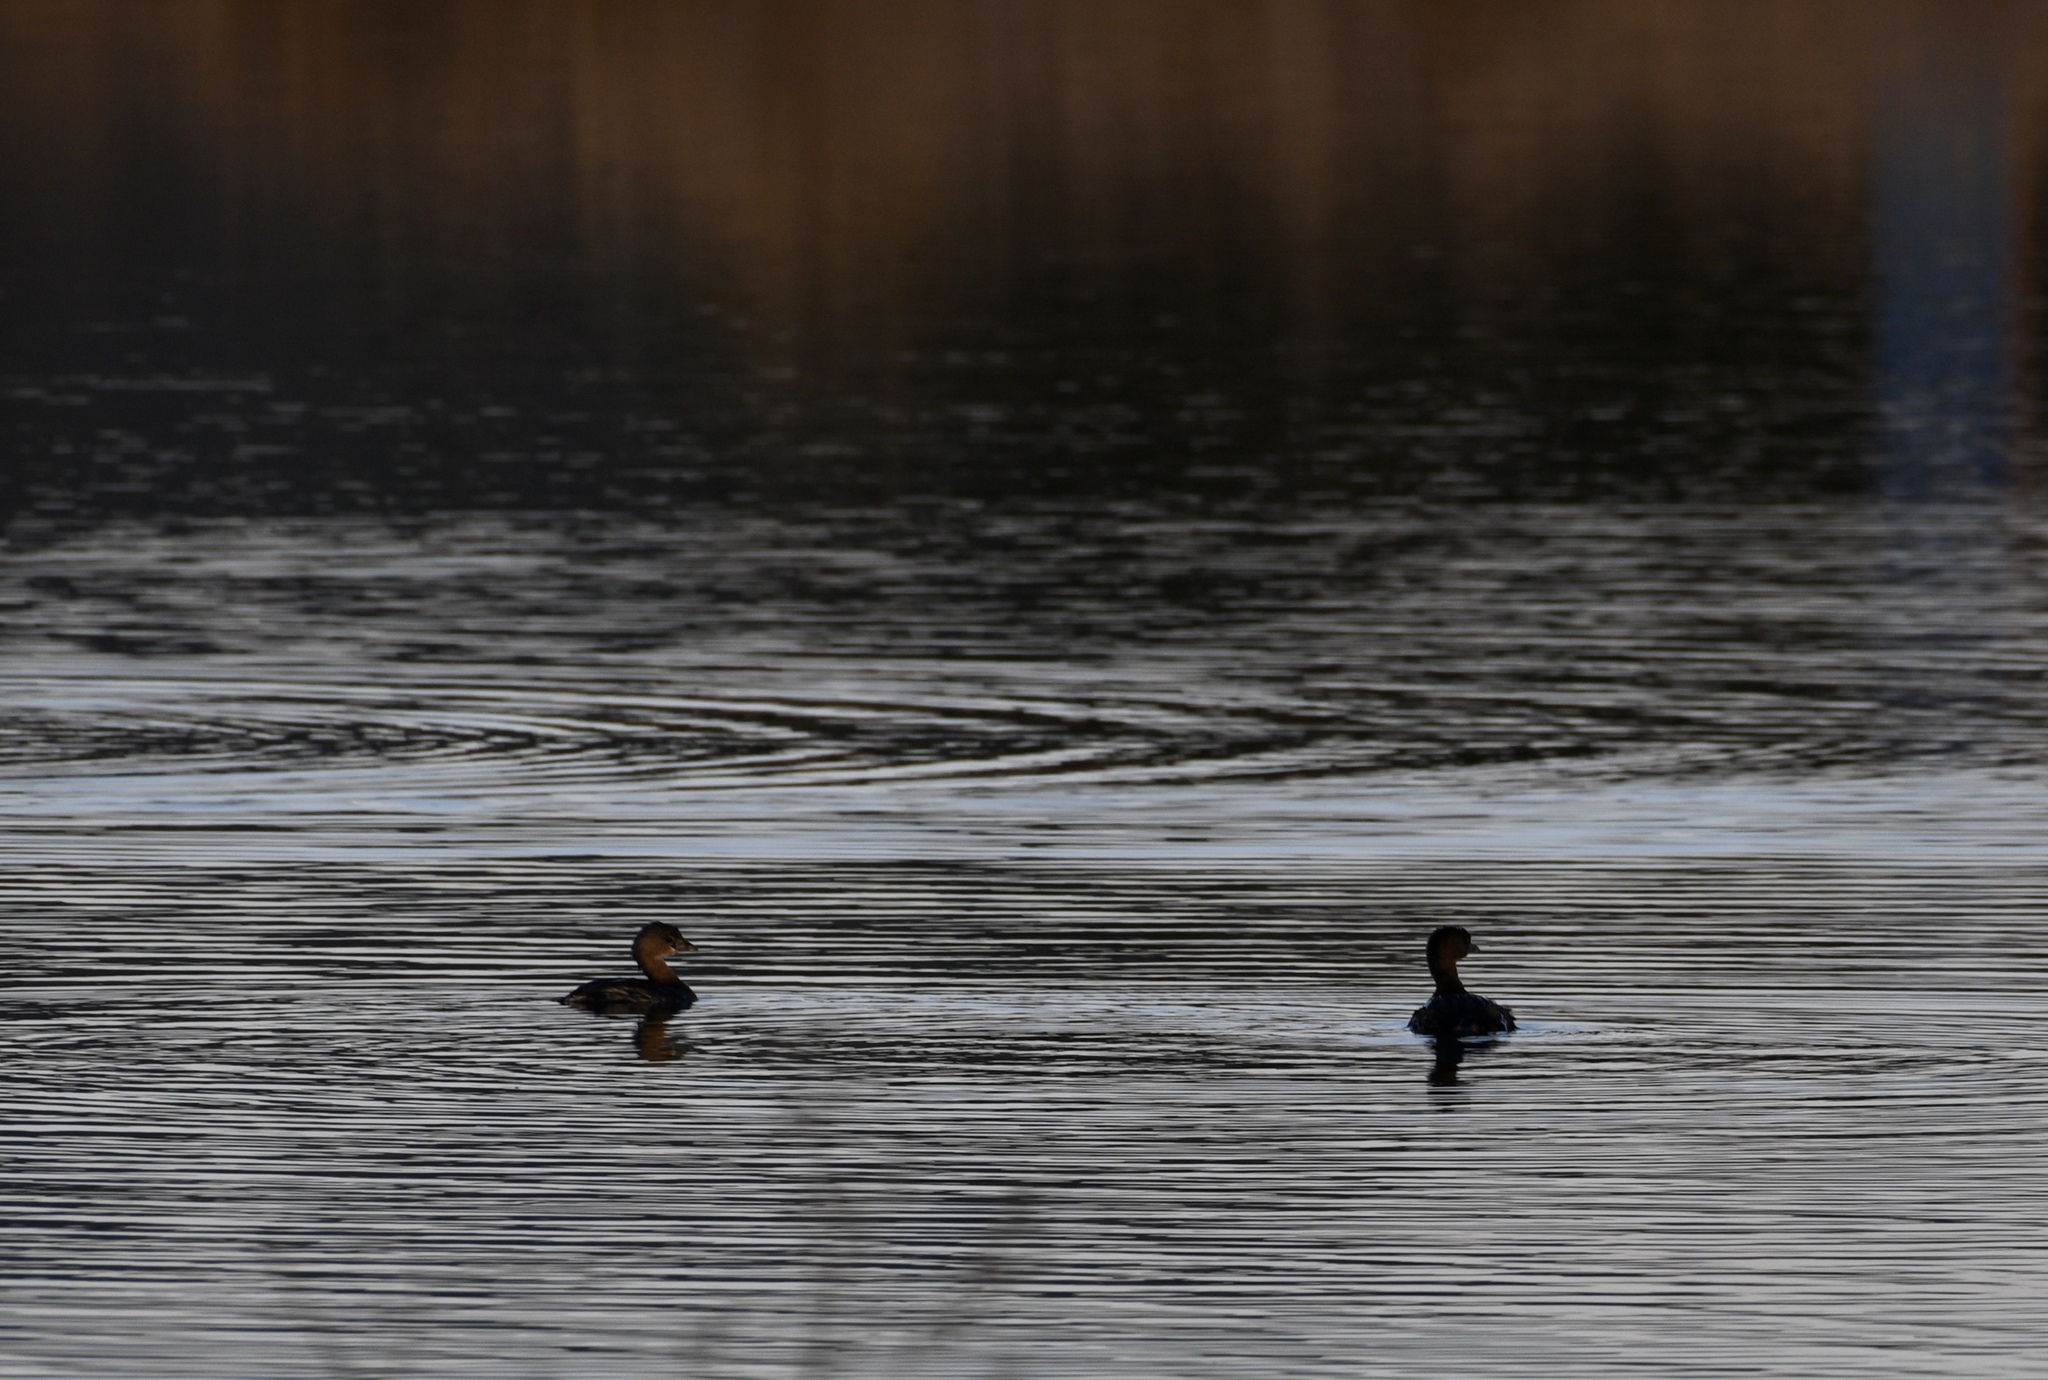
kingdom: Animalia
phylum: Chordata
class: Aves
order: Podicipediformes
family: Podicipedidae
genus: Podilymbus
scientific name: Podilymbus podiceps
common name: Pied-billed grebe
